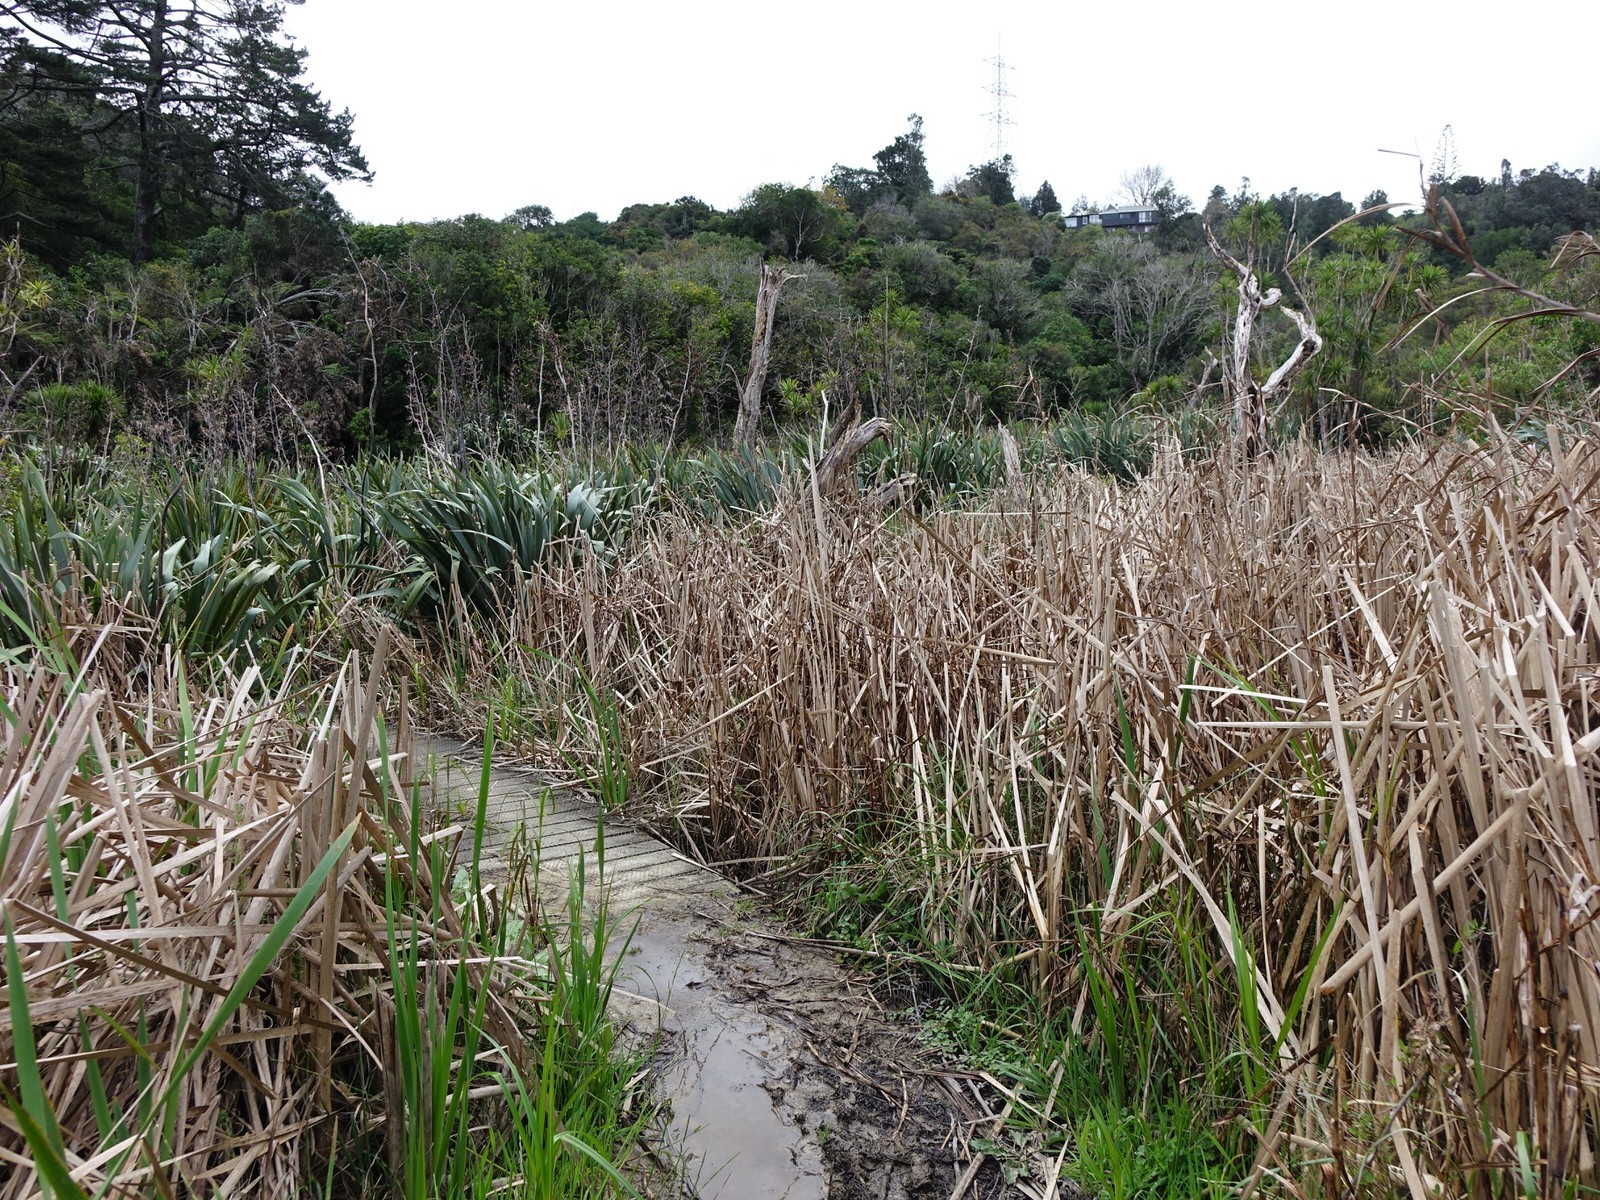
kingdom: Plantae
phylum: Tracheophyta
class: Liliopsida
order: Poales
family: Typhaceae
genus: Typha
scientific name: Typha orientalis
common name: Bullrush
